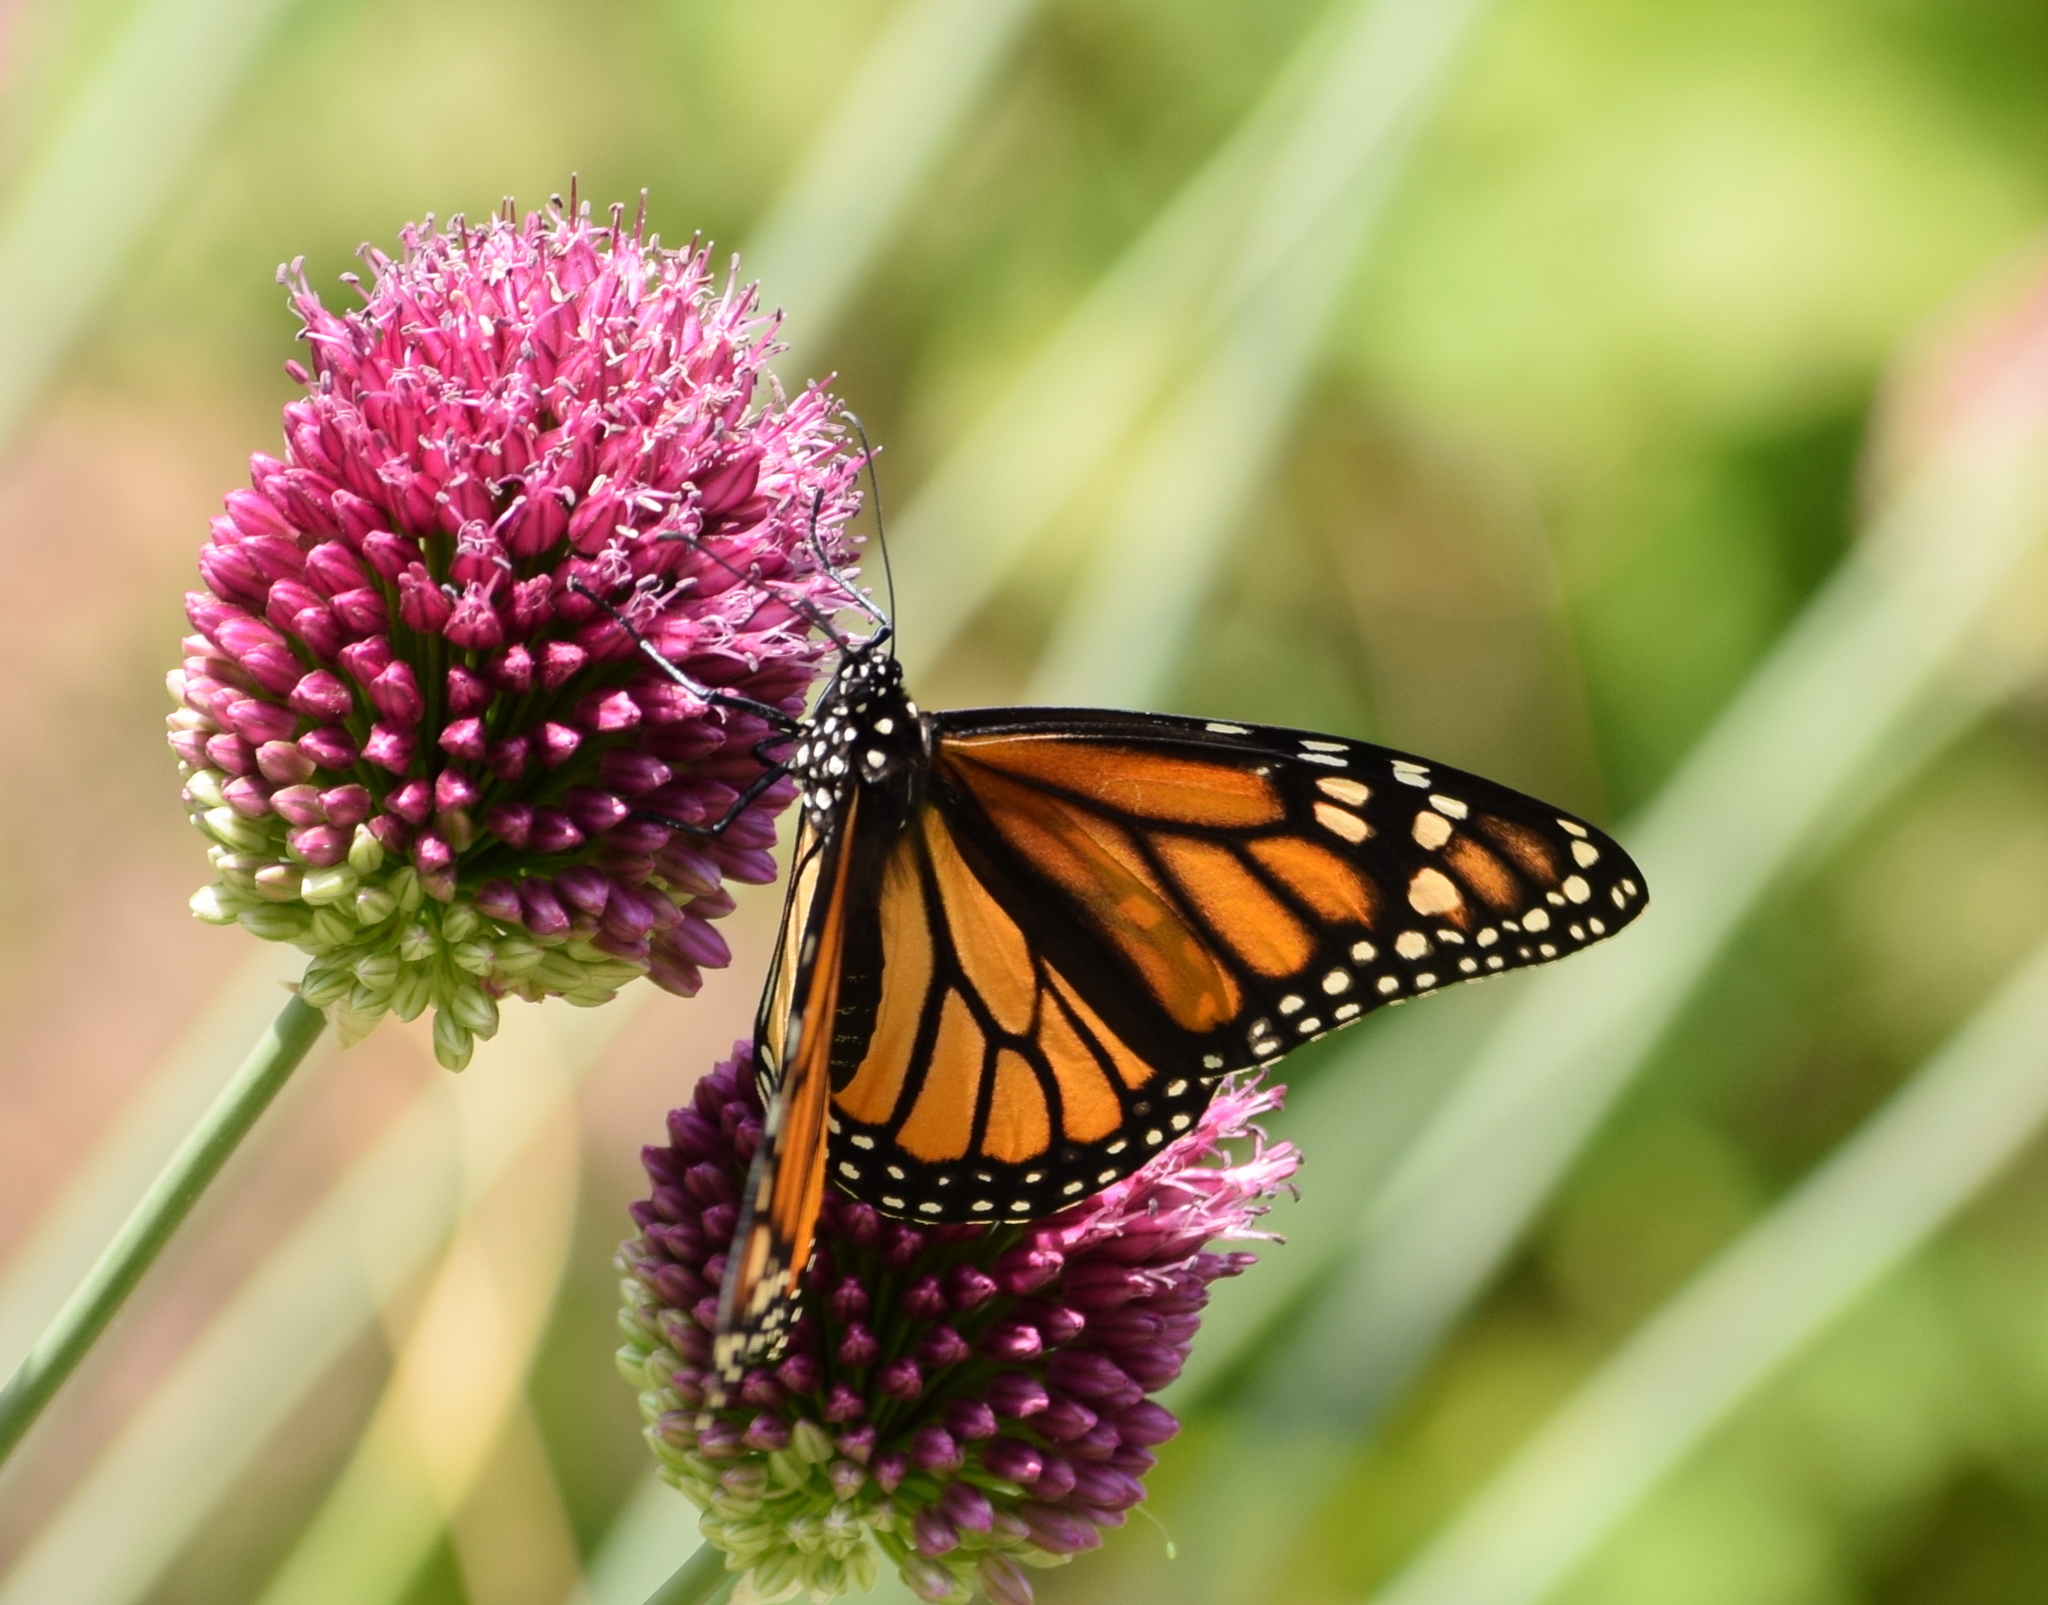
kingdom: Animalia
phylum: Arthropoda
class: Insecta
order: Lepidoptera
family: Nymphalidae
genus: Danaus
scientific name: Danaus plexippus
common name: Monarch
